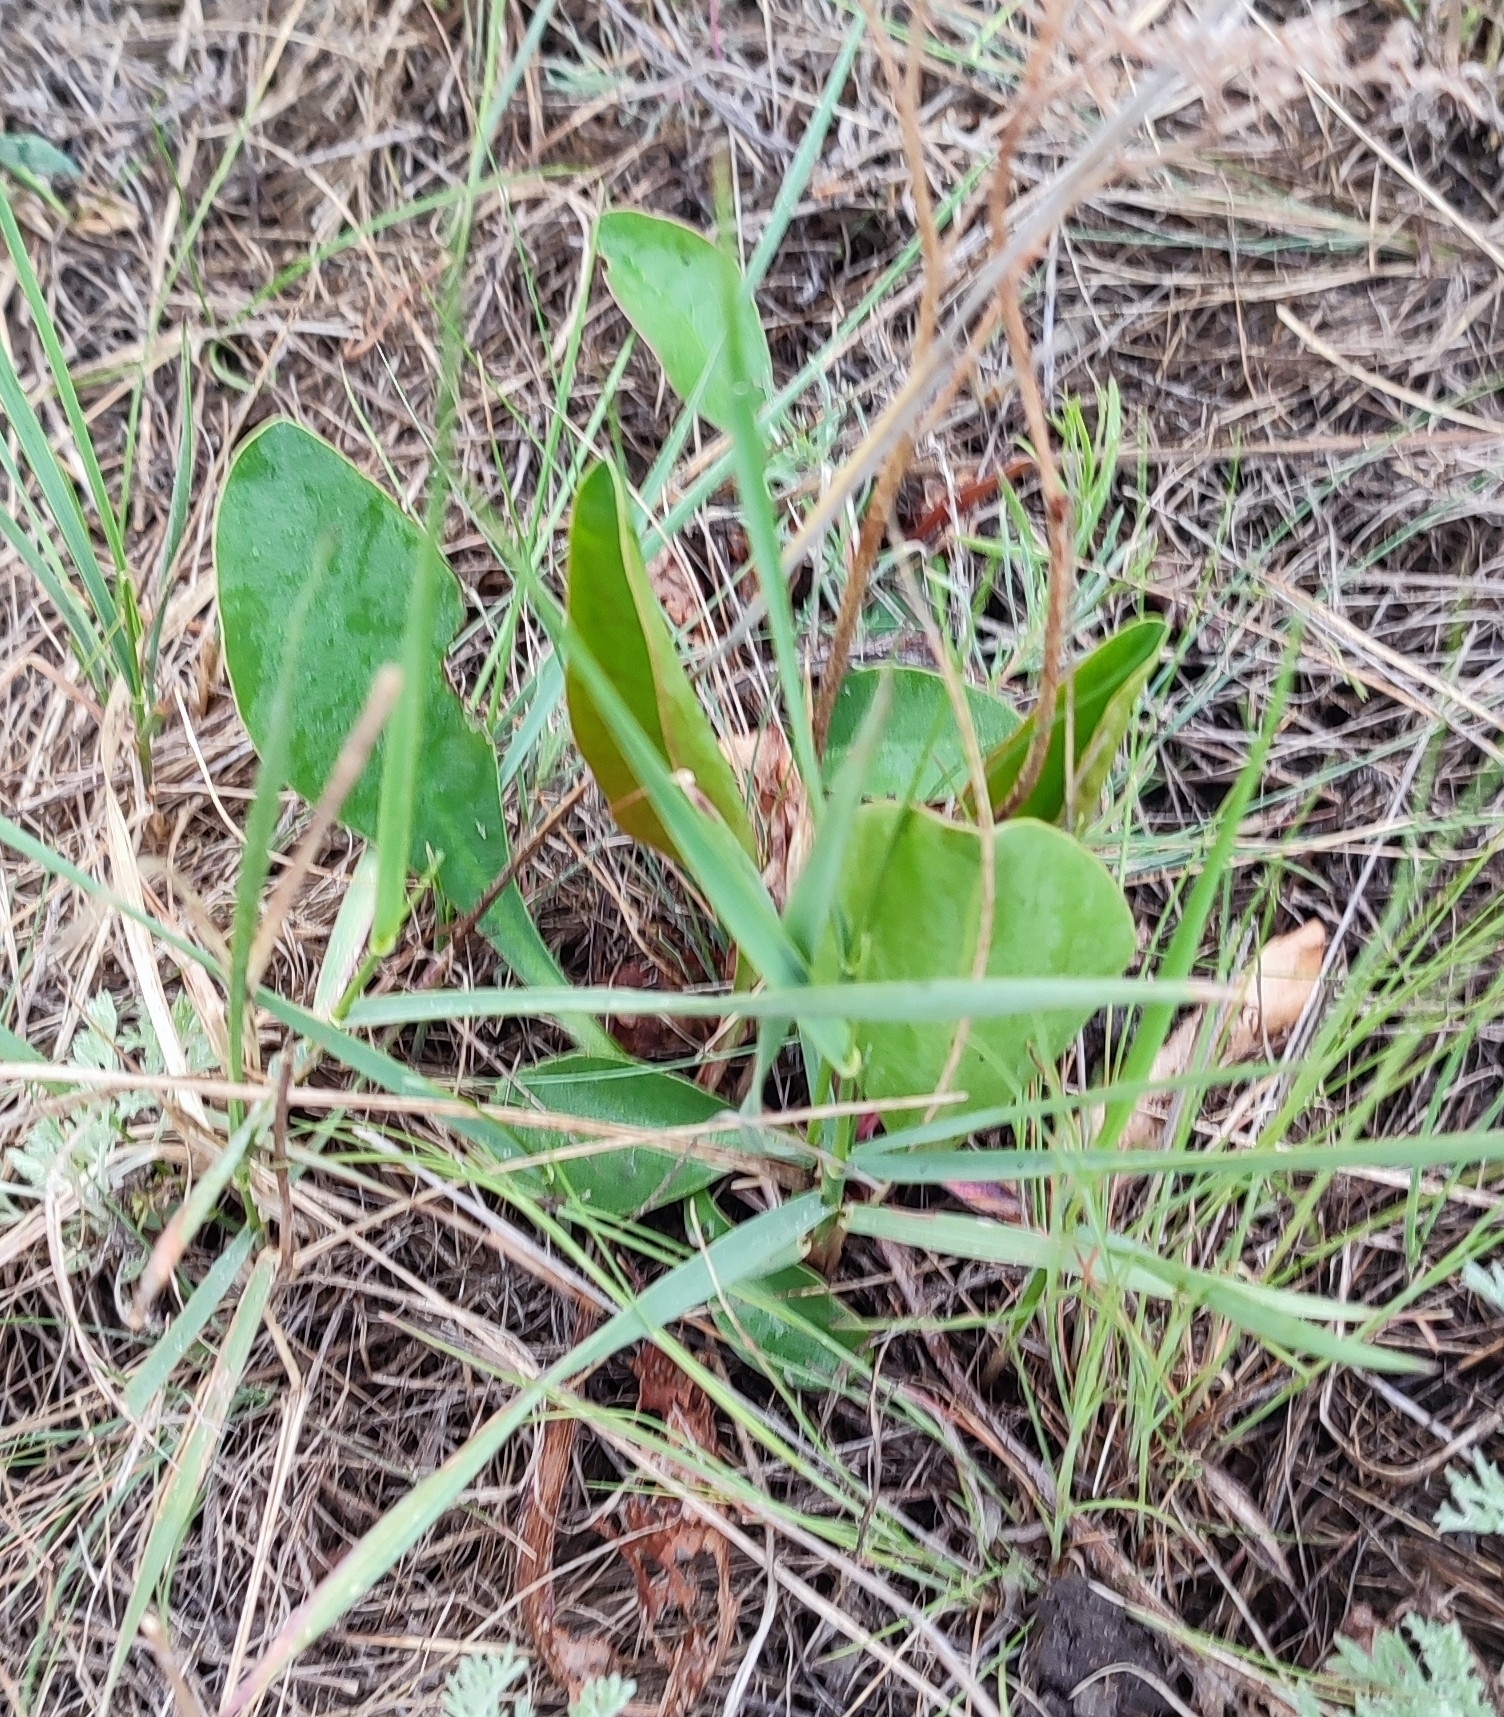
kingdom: Plantae
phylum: Tracheophyta
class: Magnoliopsida
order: Caryophyllales
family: Plumbaginaceae
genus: Limonium
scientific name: Limonium gmelini
